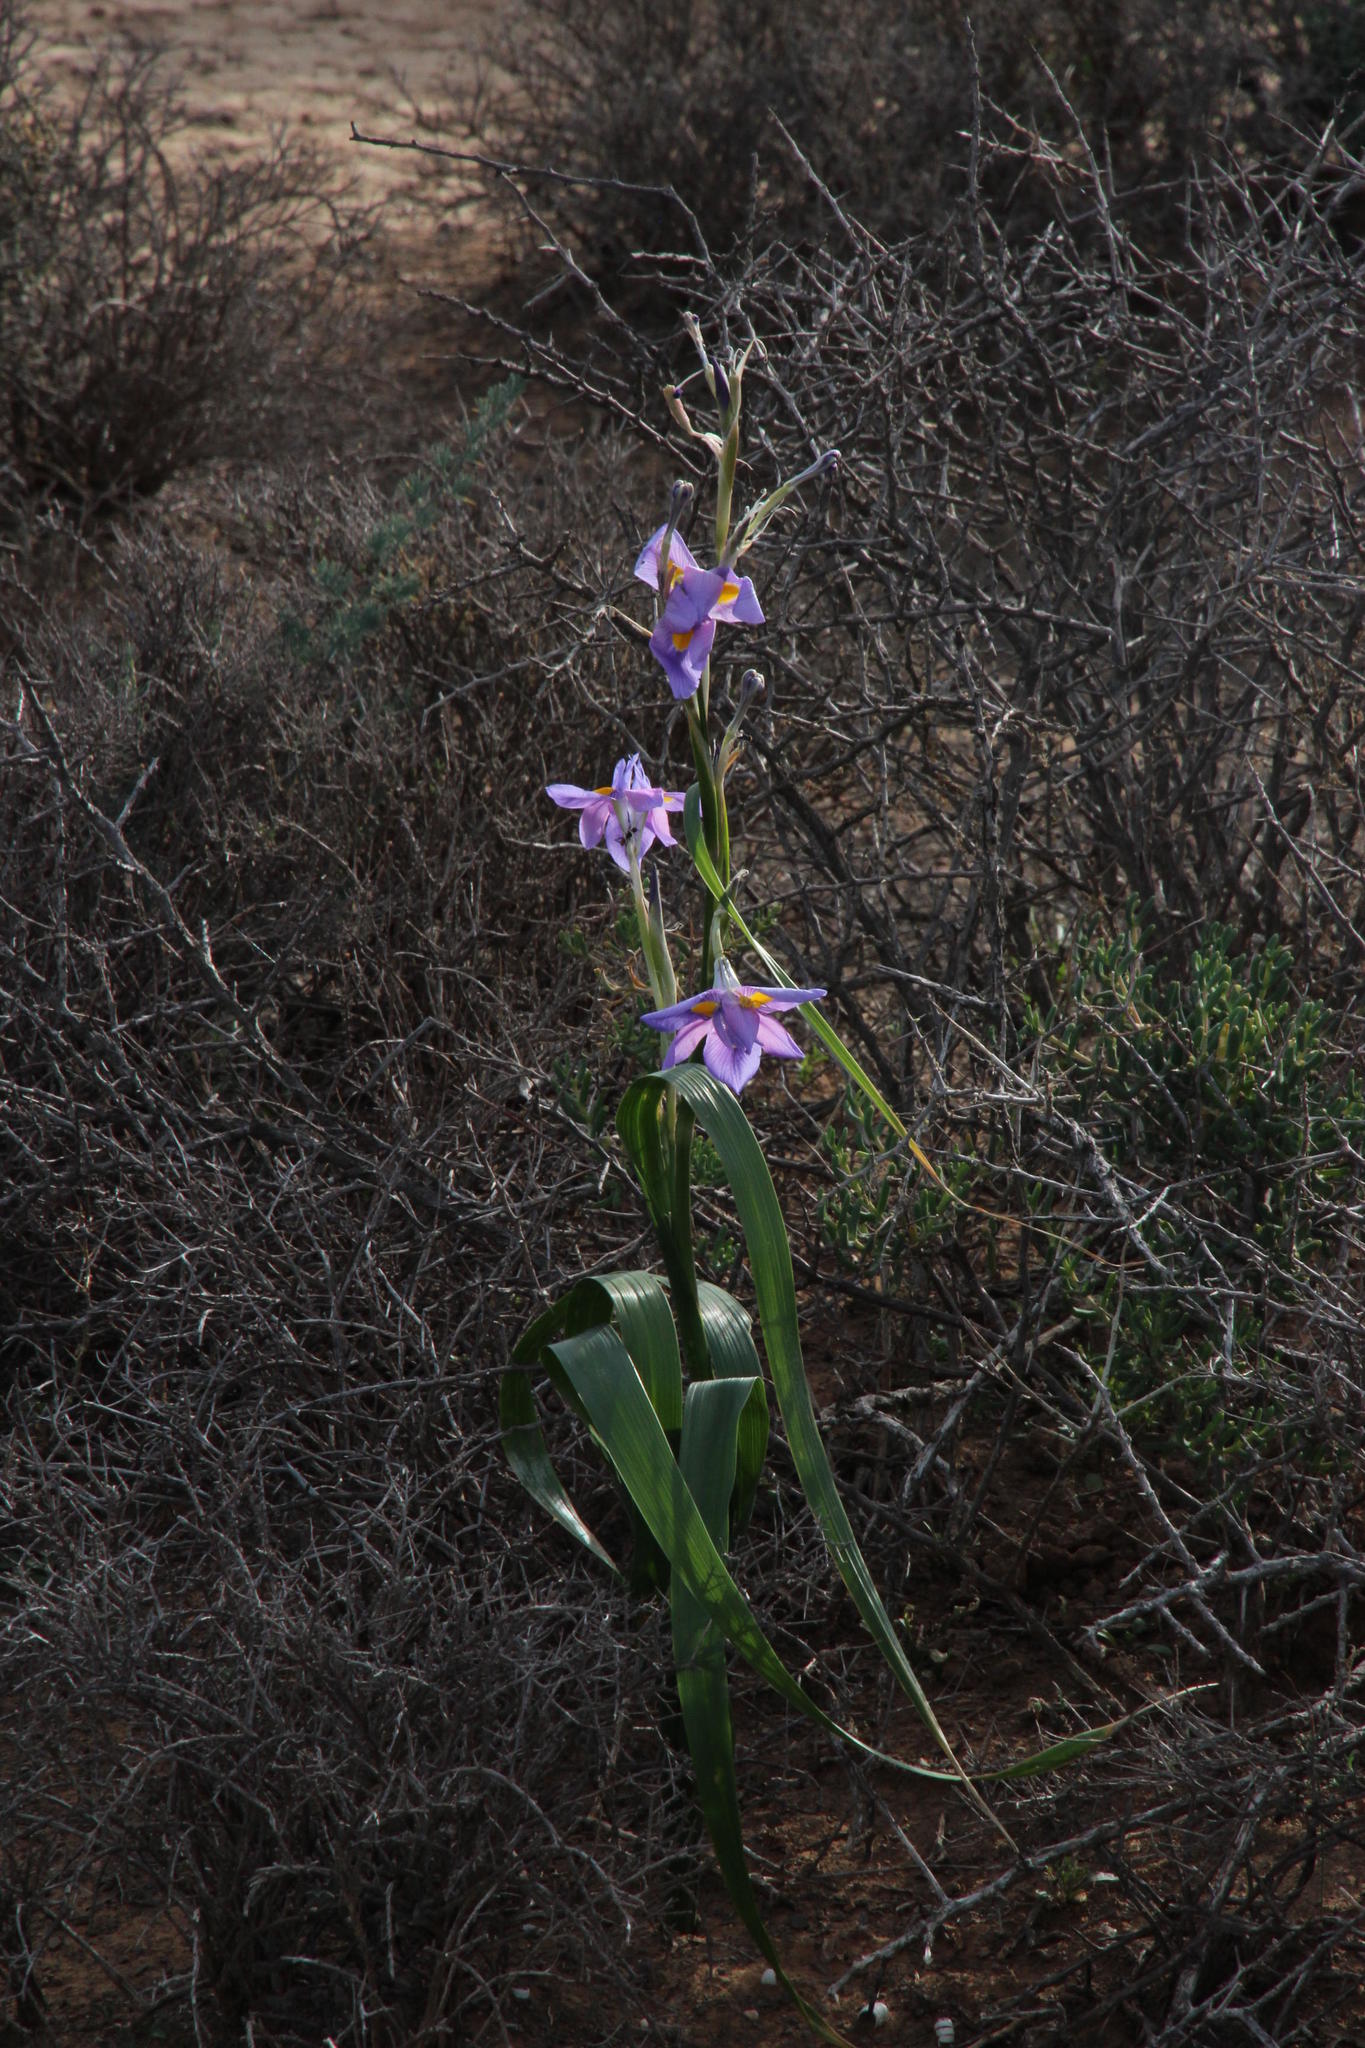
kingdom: Plantae
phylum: Tracheophyta
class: Liliopsida
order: Asparagales
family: Iridaceae
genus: Moraea
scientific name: Moraea polystachya
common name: Blue-tulip
